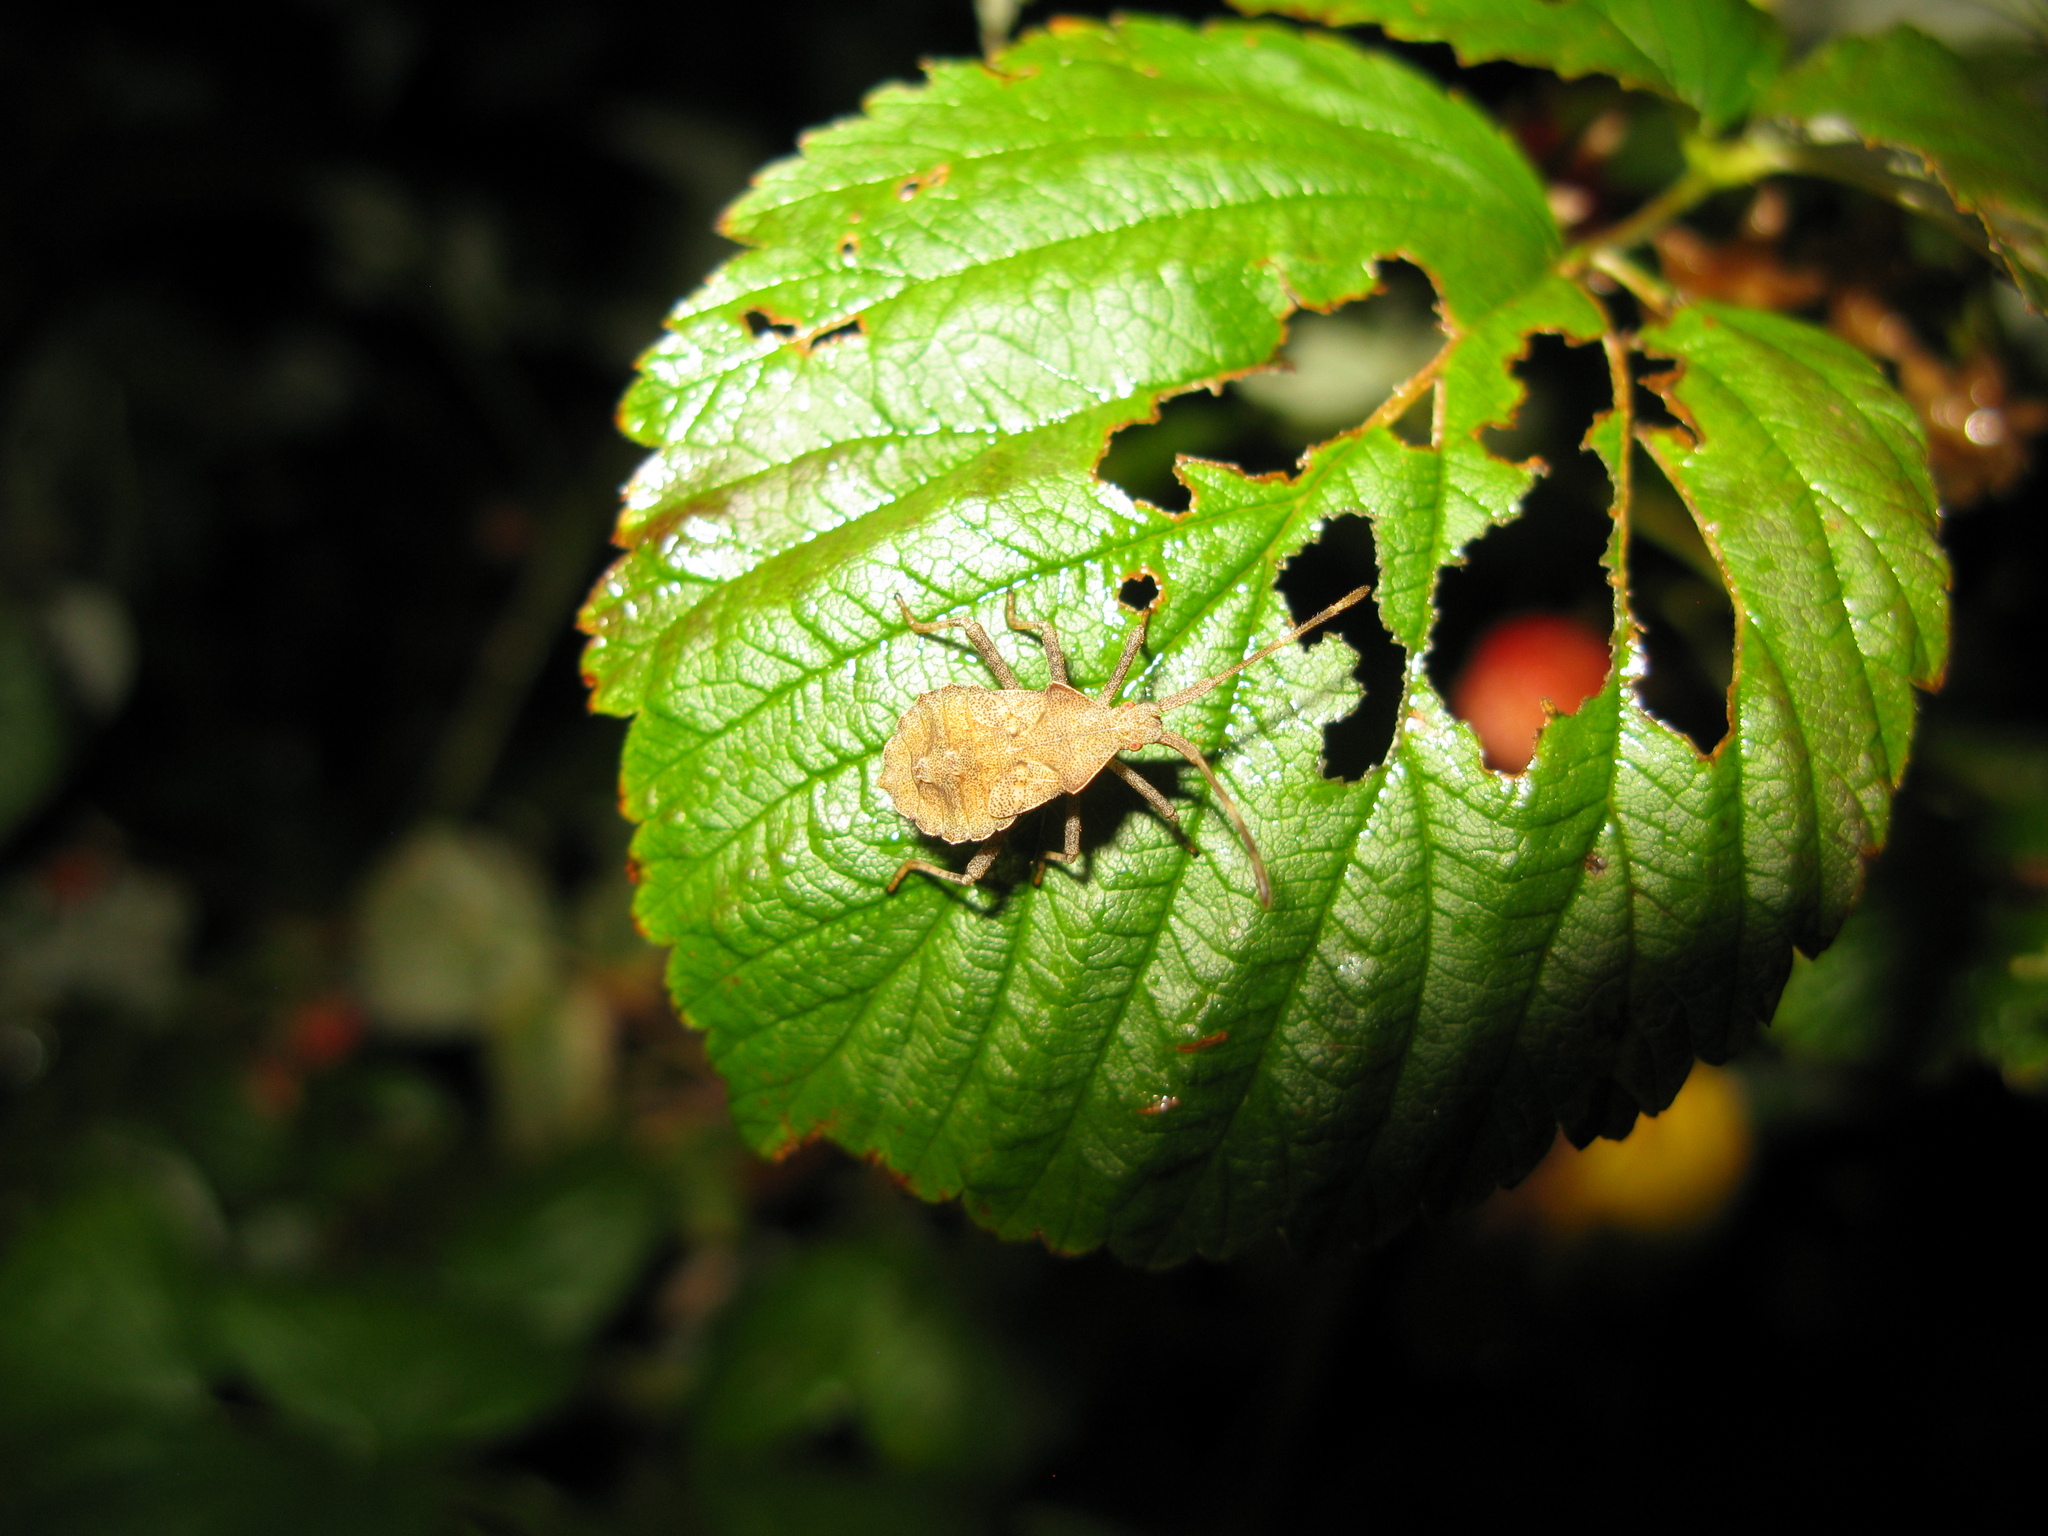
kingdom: Animalia
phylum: Arthropoda
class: Insecta
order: Hemiptera
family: Coreidae
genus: Syromastus
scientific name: Syromastus rhombeus
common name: Rhombic leatherbug
